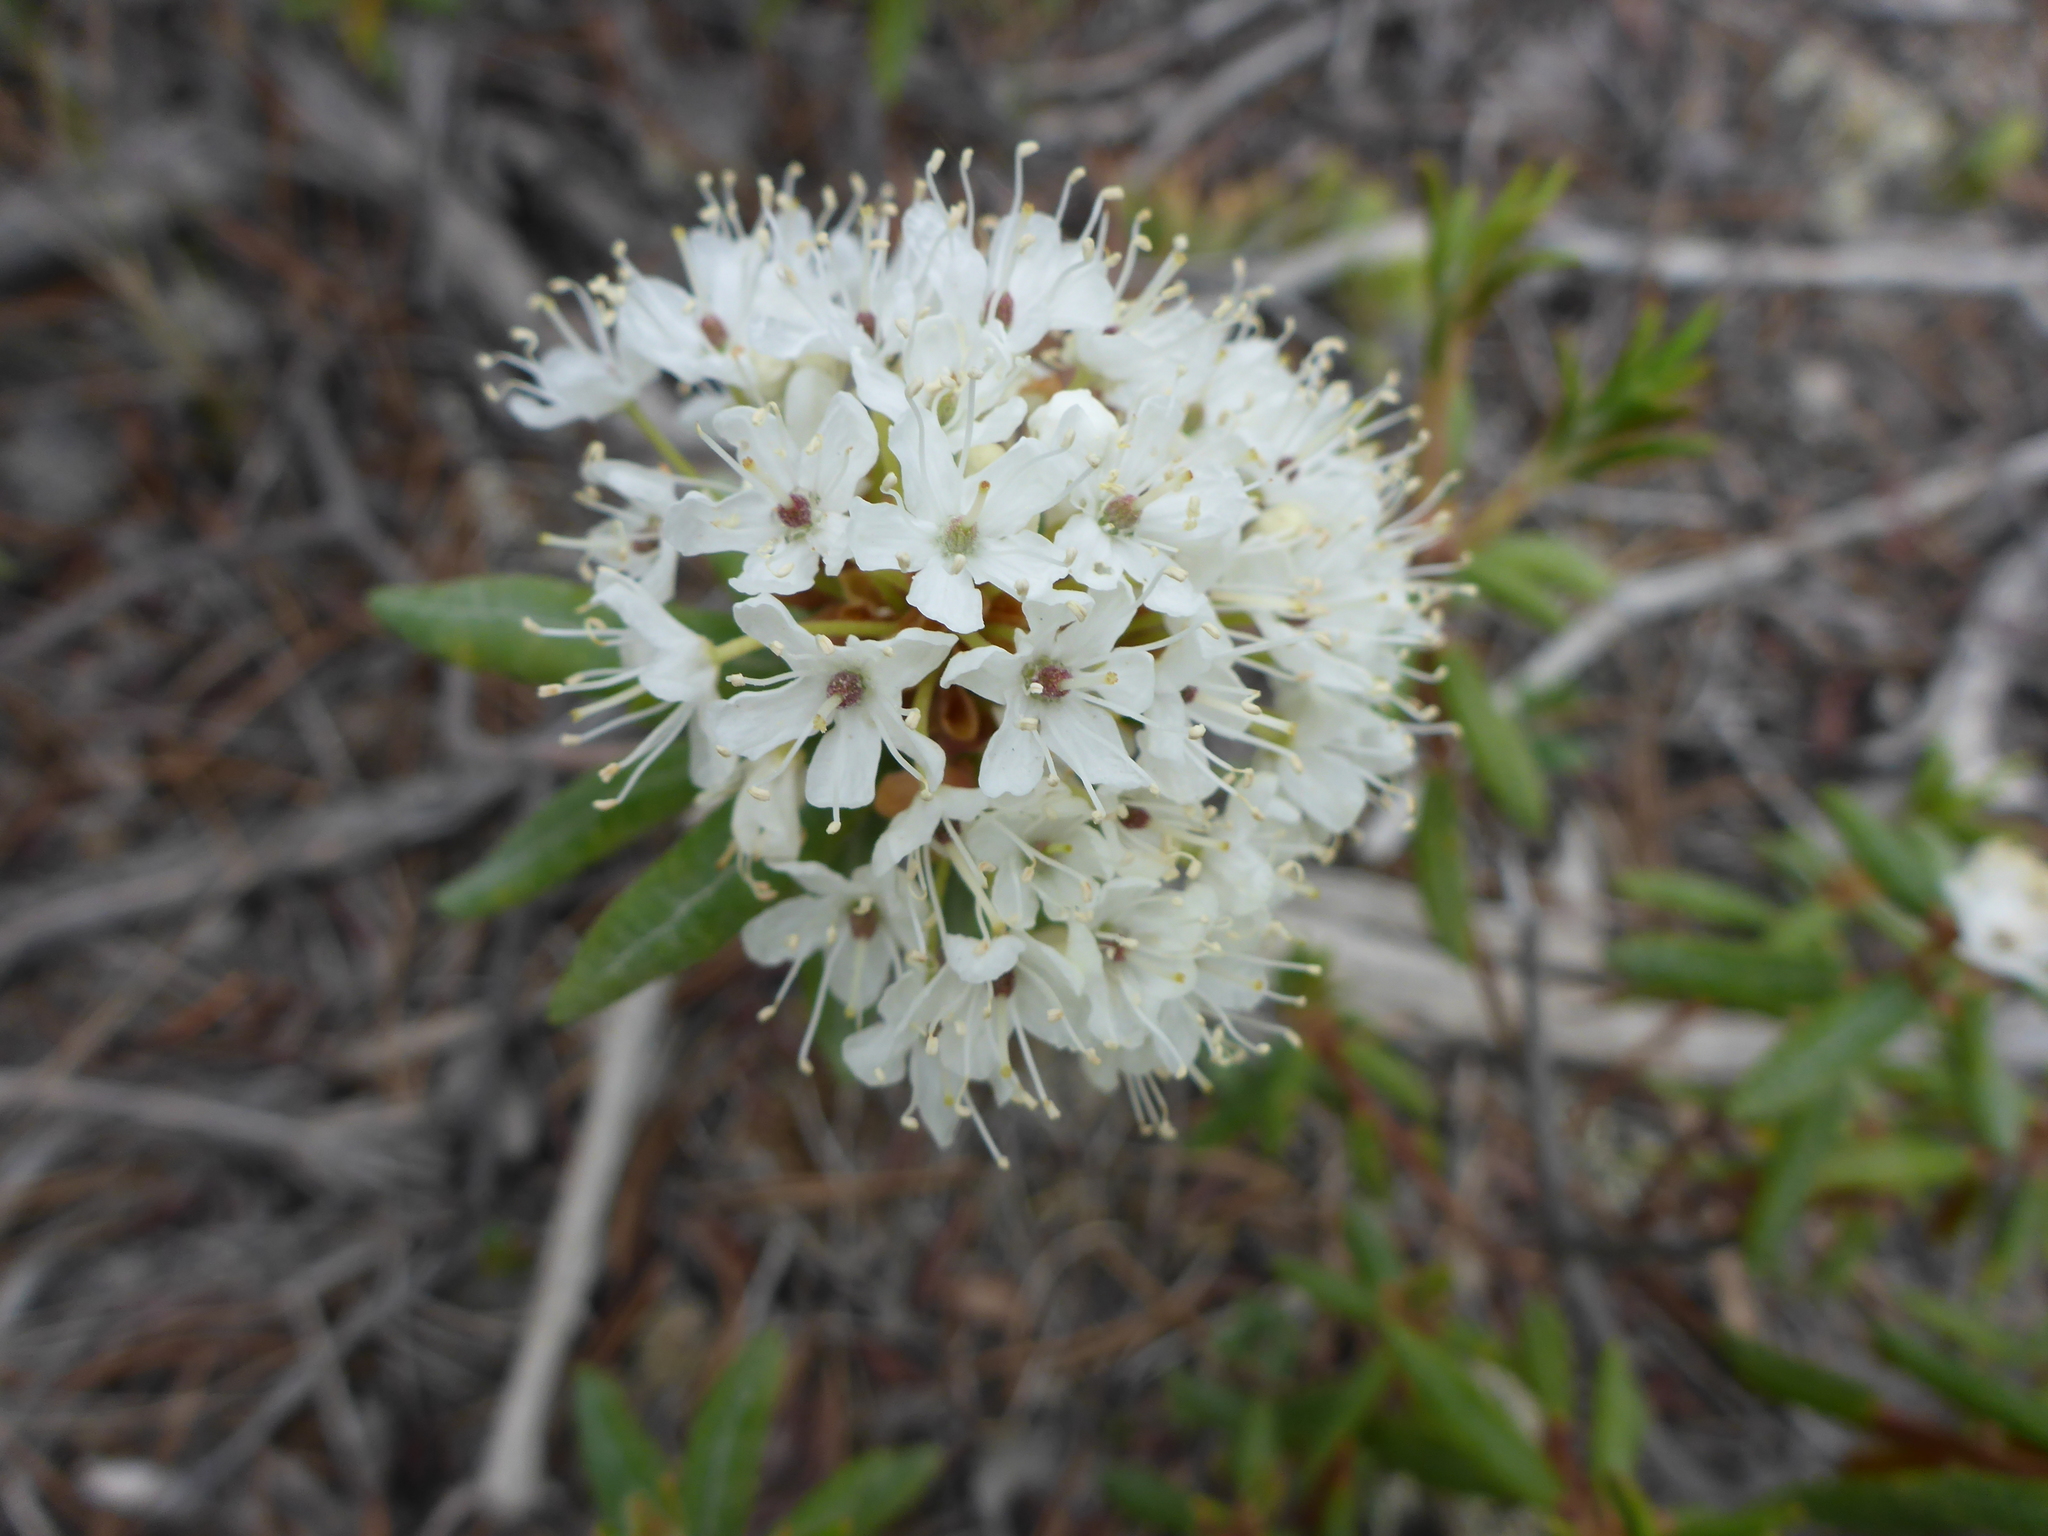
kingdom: Plantae
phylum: Tracheophyta
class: Magnoliopsida
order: Ericales
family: Ericaceae
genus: Rhododendron
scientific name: Rhododendron groenlandicum
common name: Bog labrador tea
